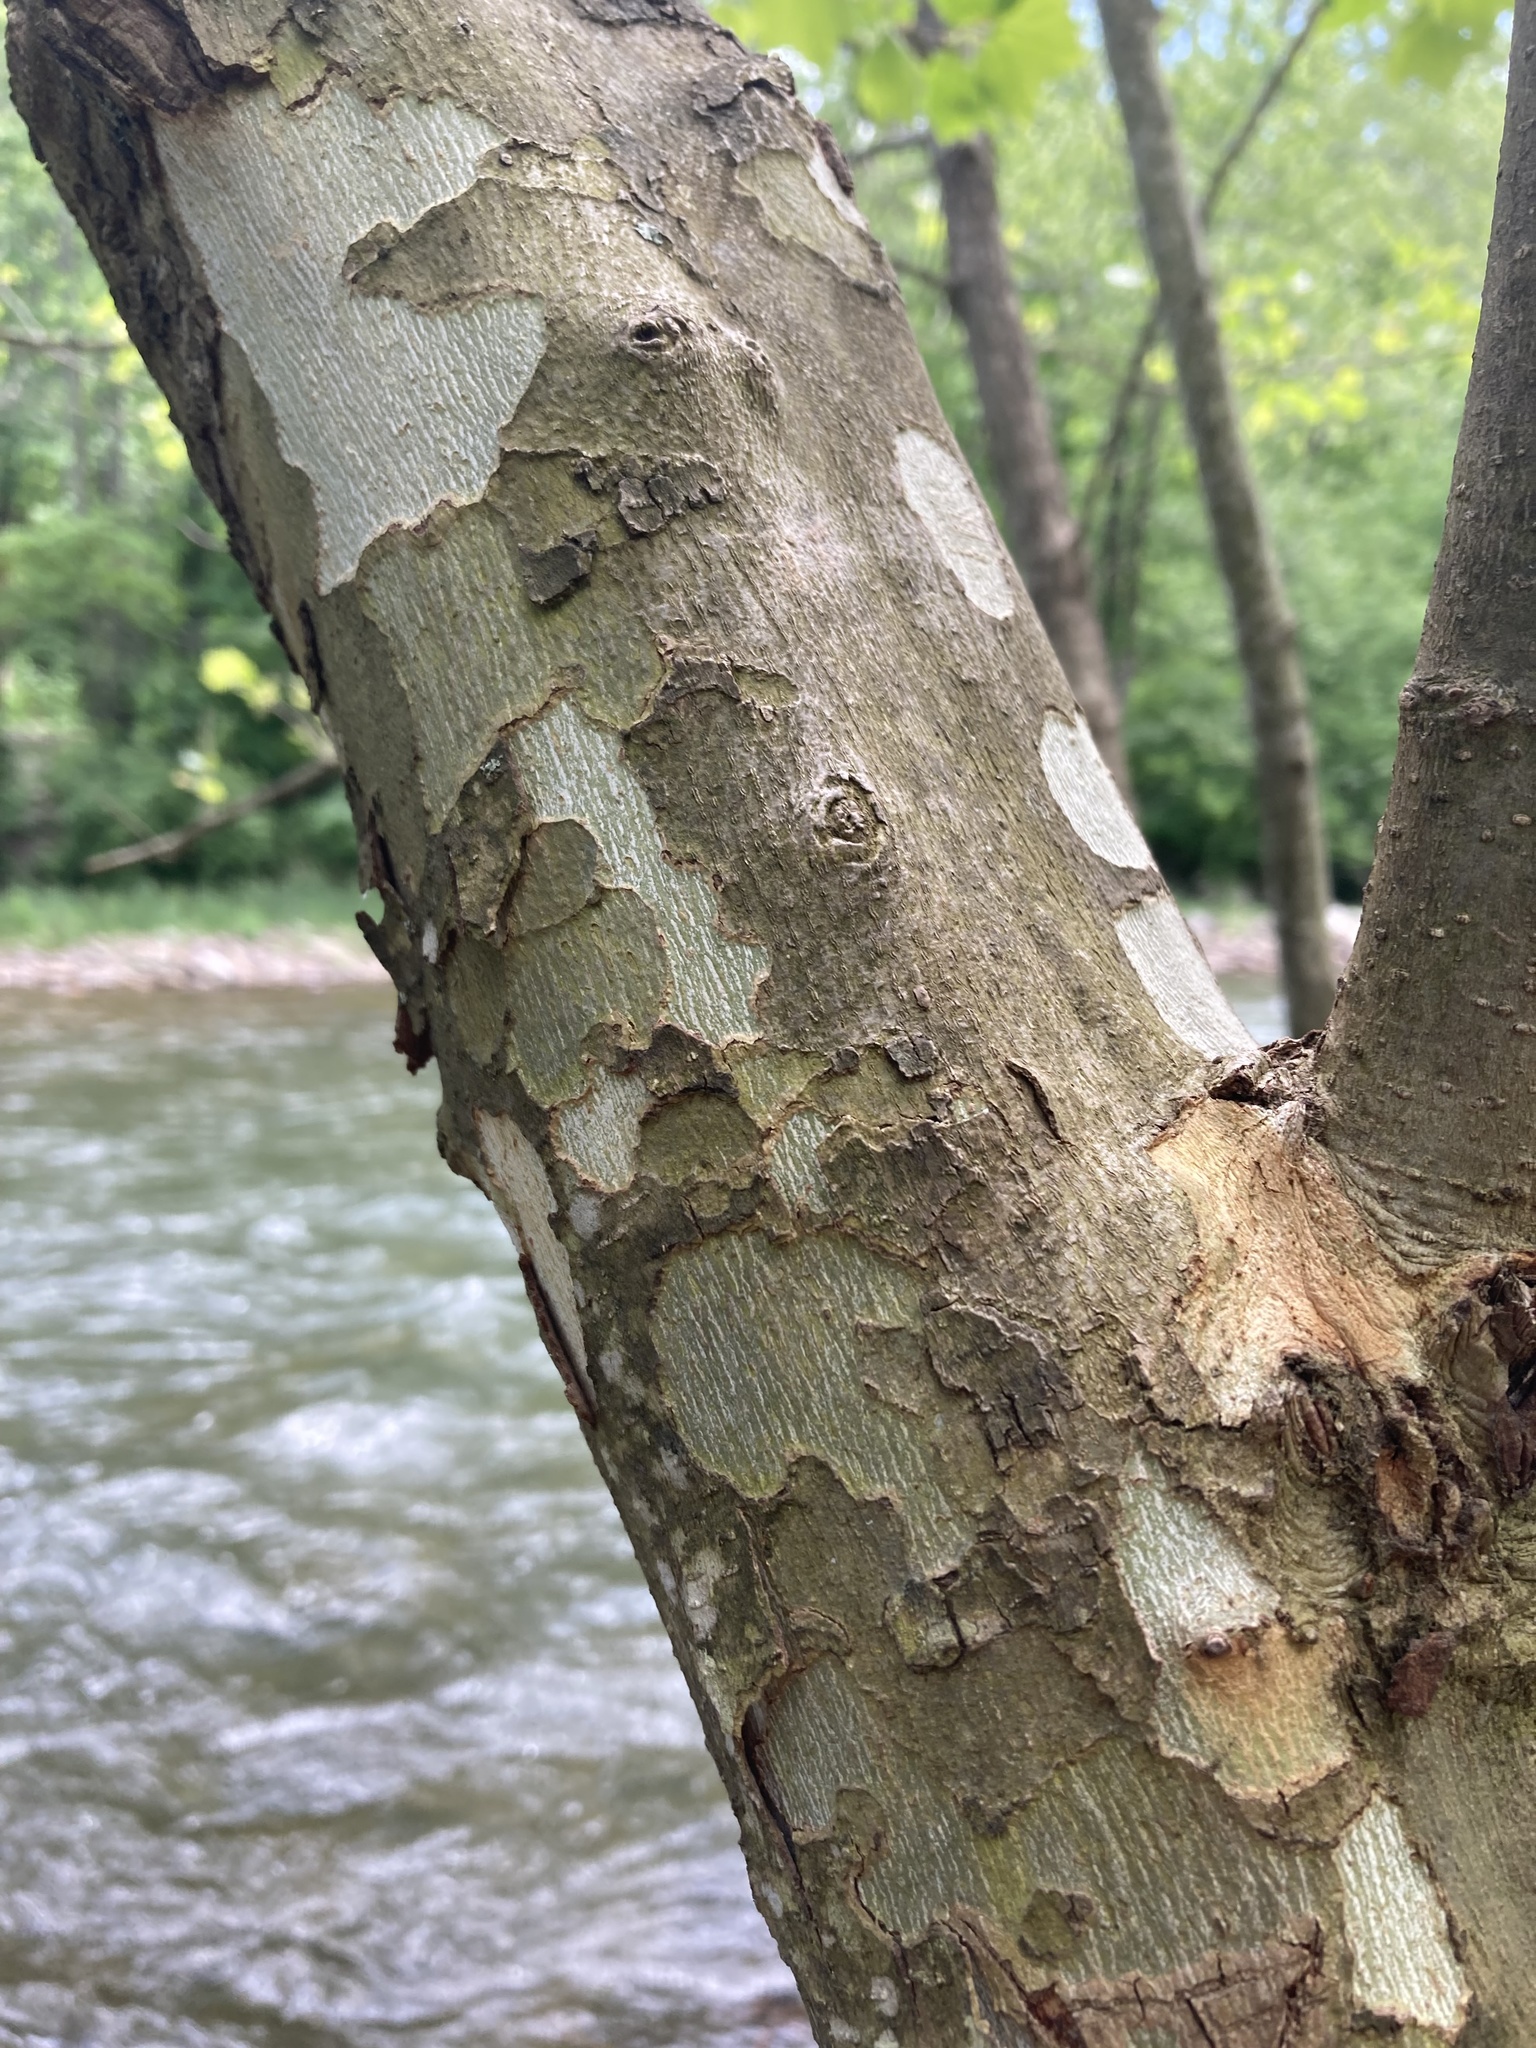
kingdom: Plantae
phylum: Tracheophyta
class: Magnoliopsida
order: Proteales
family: Platanaceae
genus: Platanus
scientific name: Platanus occidentalis
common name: American sycamore
